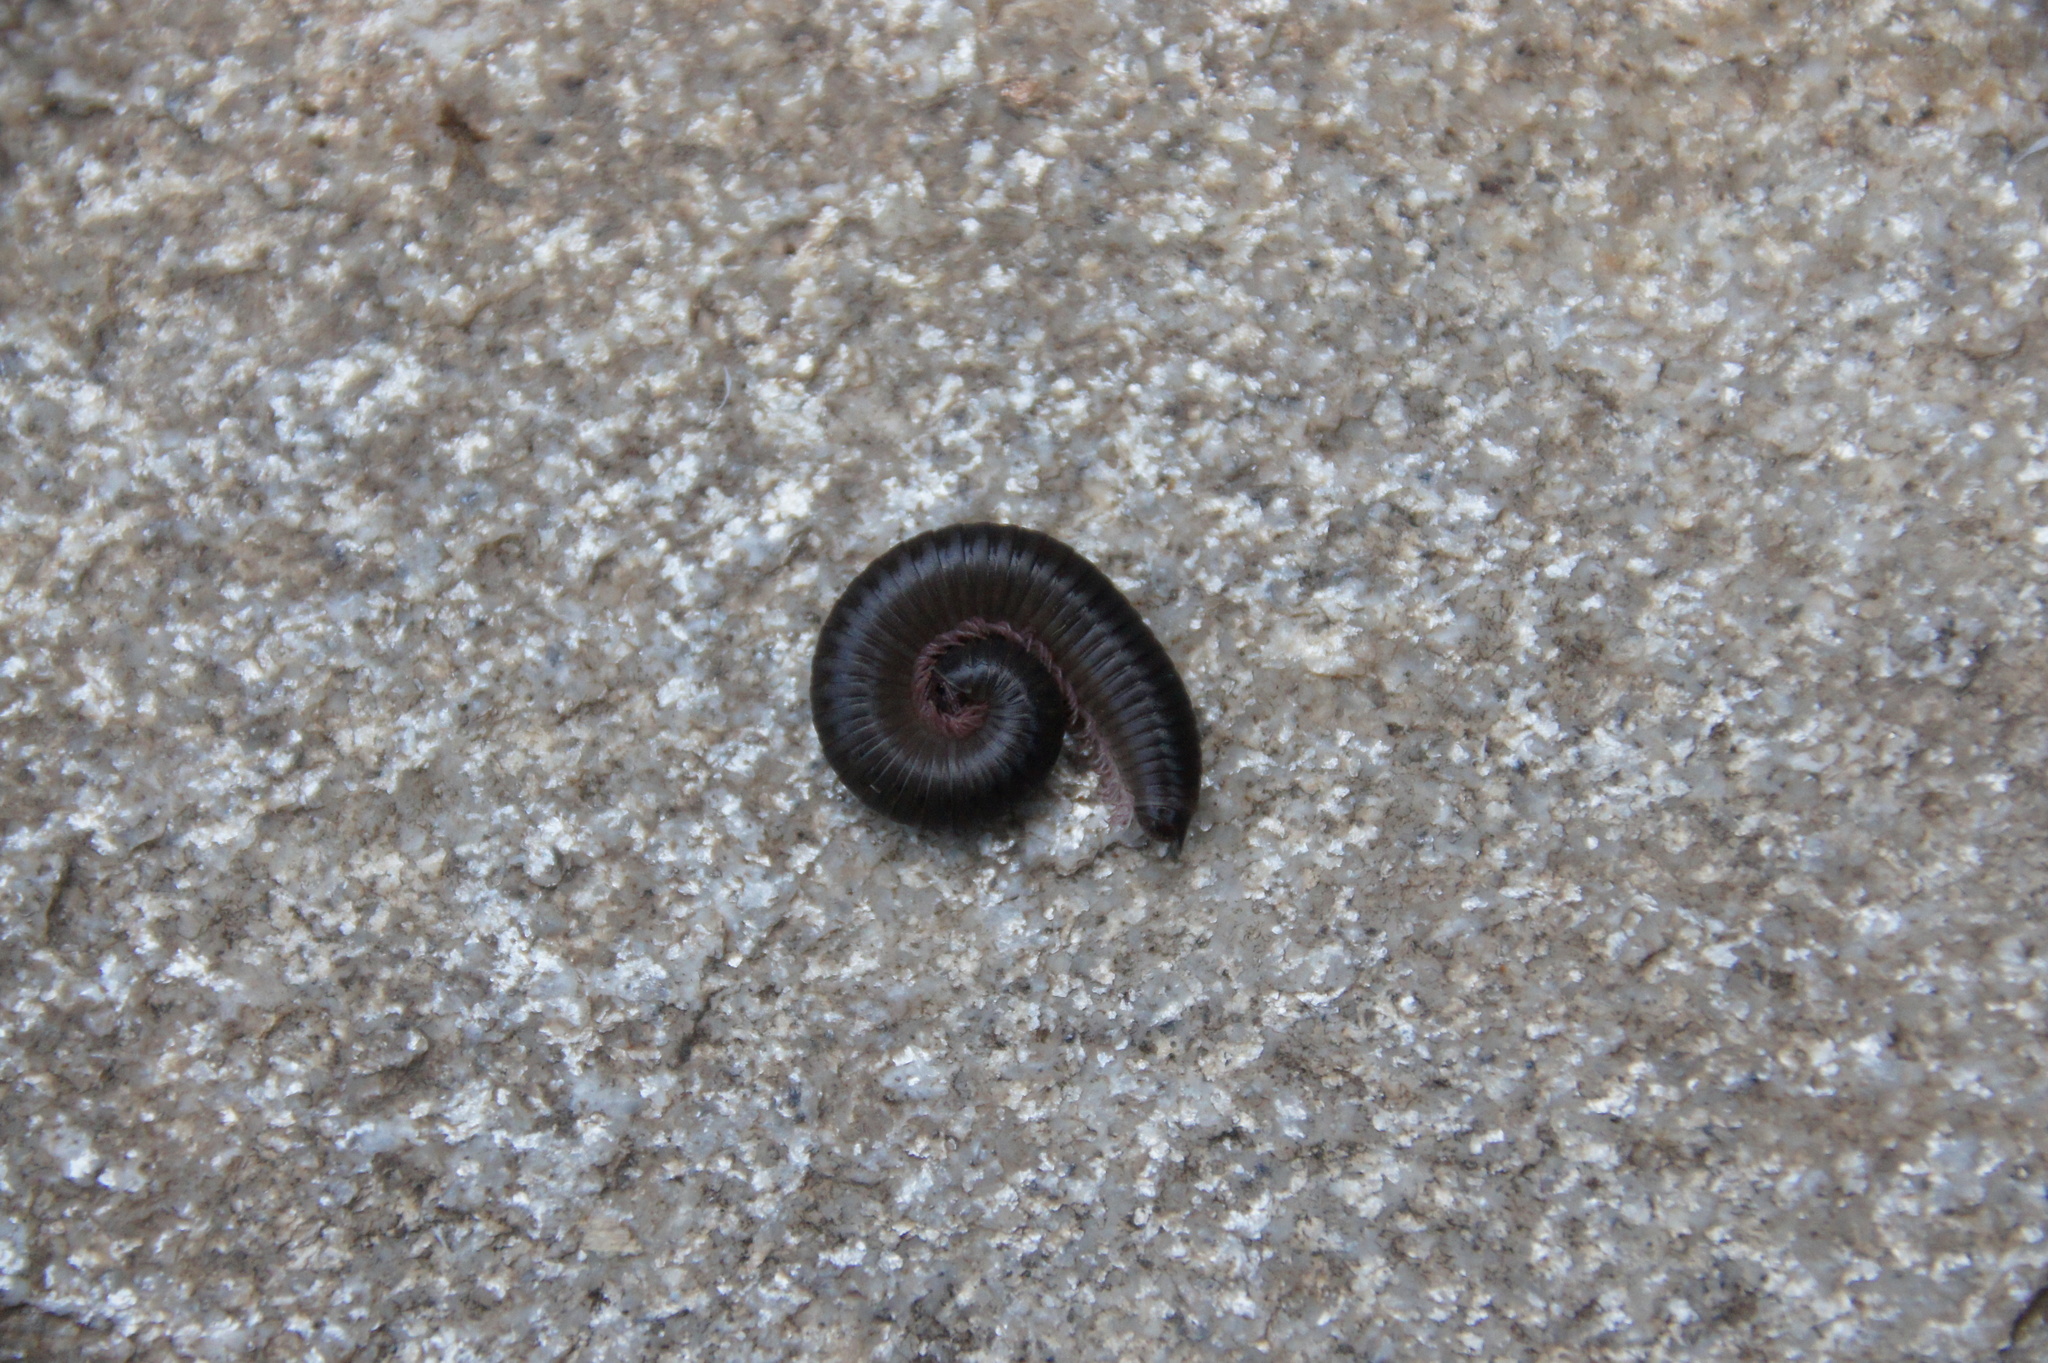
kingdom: Animalia
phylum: Arthropoda
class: Diplopoda
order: Julida
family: Julidae
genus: Ommatoiulus
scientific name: Ommatoiulus moreleti
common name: Portuguese millipede
